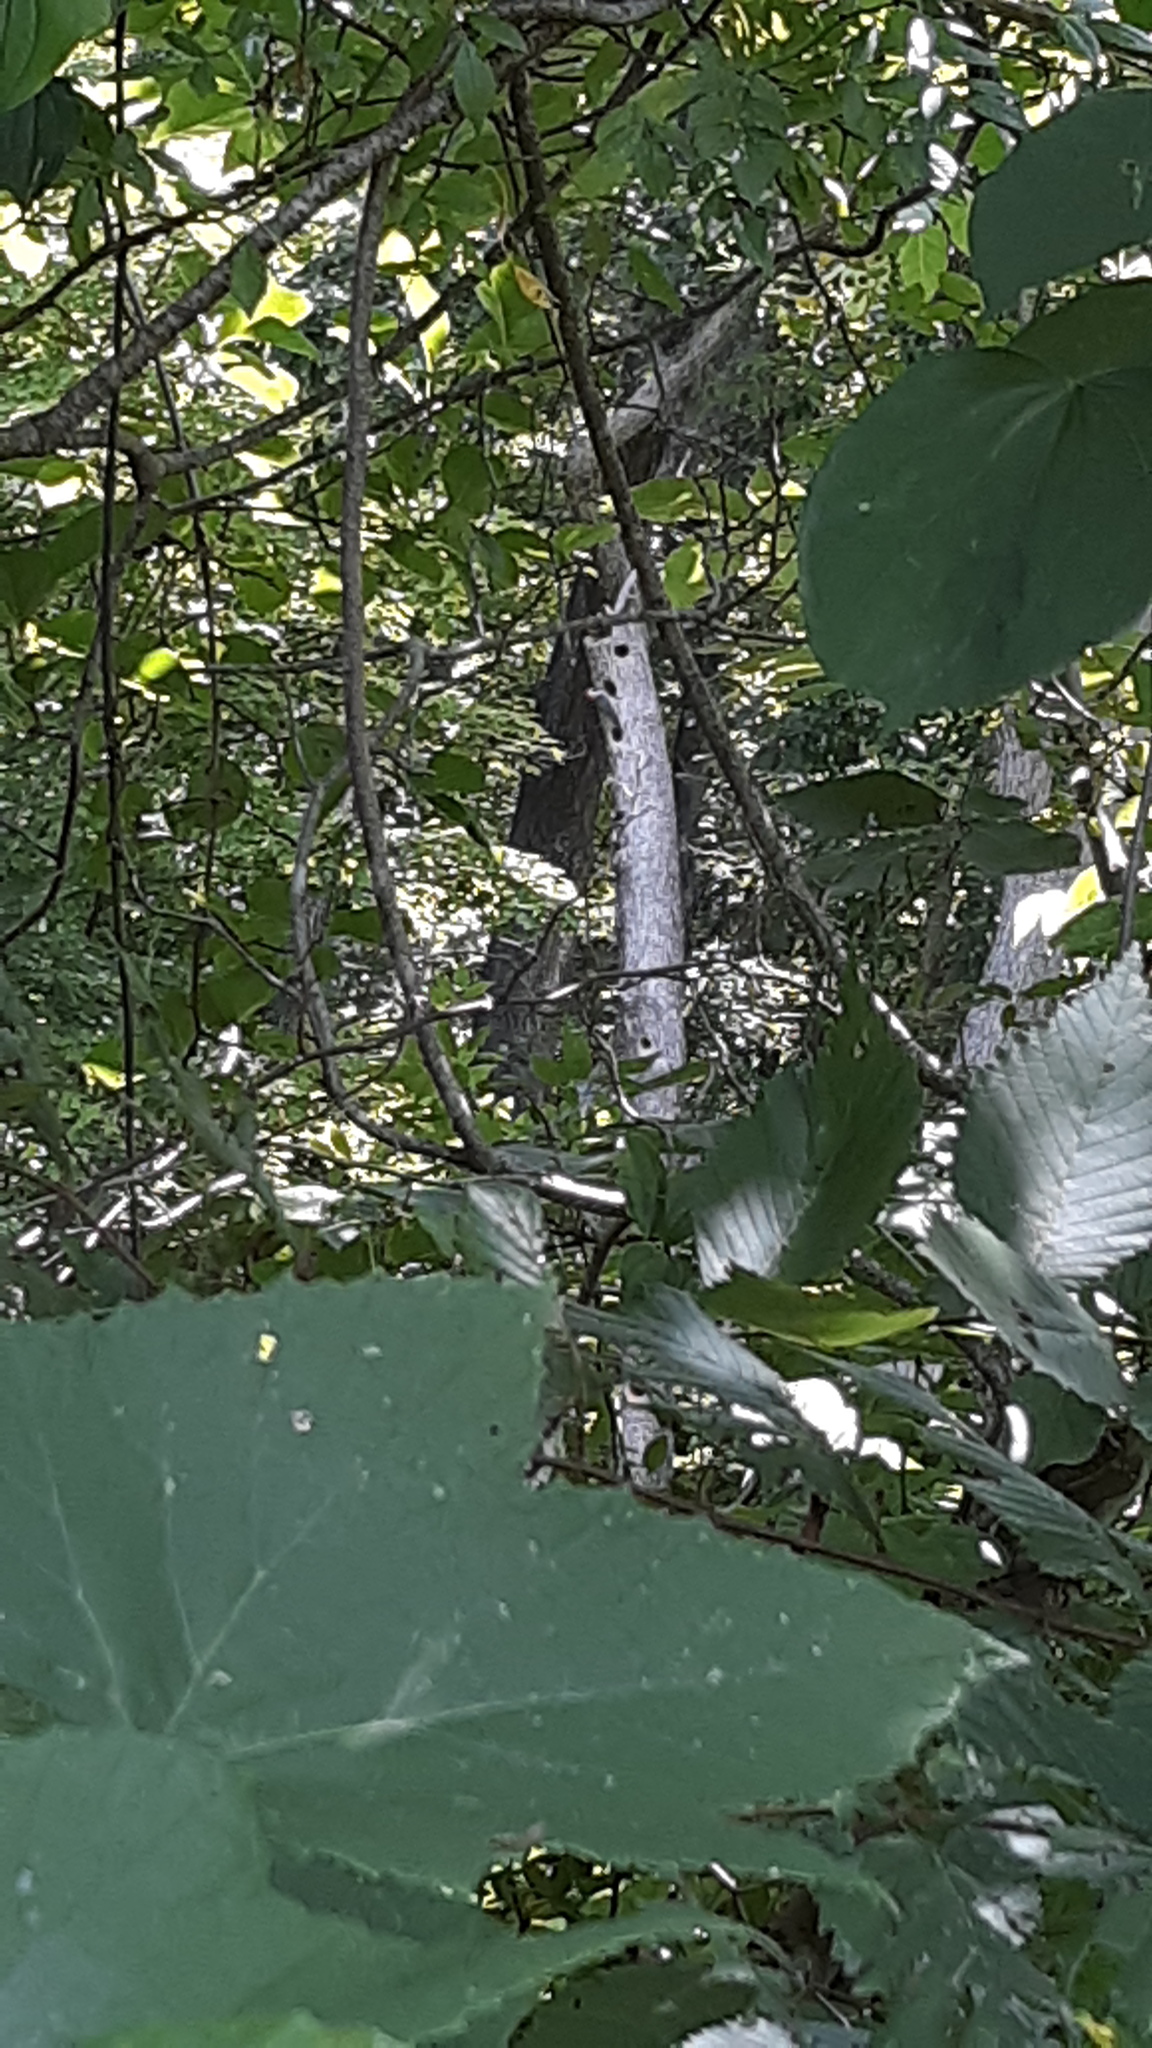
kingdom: Animalia
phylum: Chordata
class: Aves
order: Piciformes
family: Picidae
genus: Melanerpes
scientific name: Melanerpes carolinus
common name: Red-bellied woodpecker
